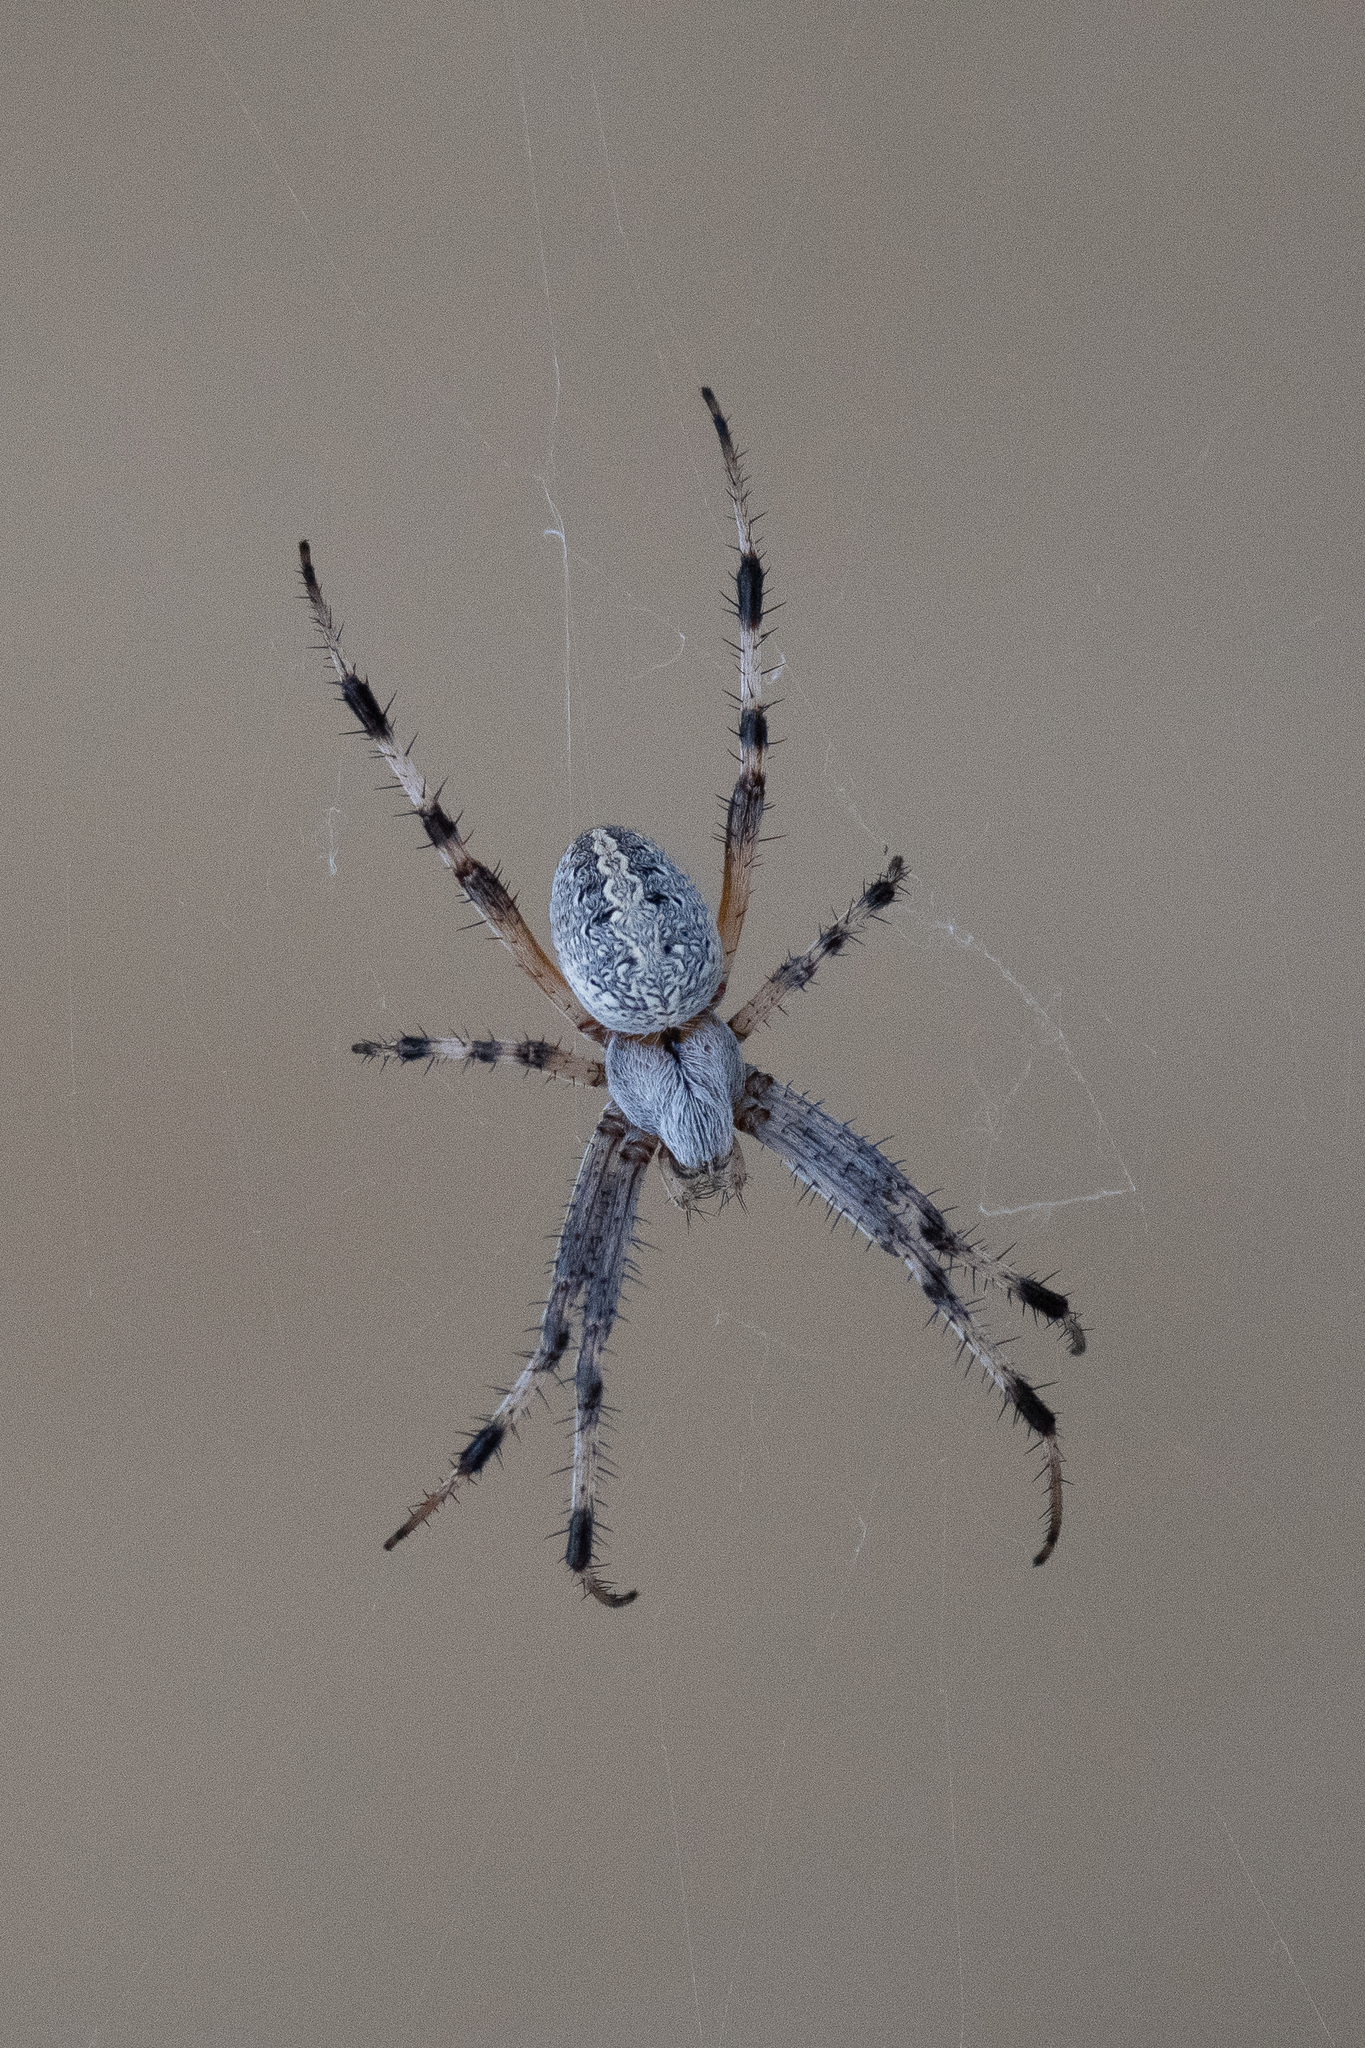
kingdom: Animalia
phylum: Arthropoda
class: Arachnida
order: Araneae
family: Araneidae
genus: Neoscona
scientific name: Neoscona oaxacensis
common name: Orb weavers
